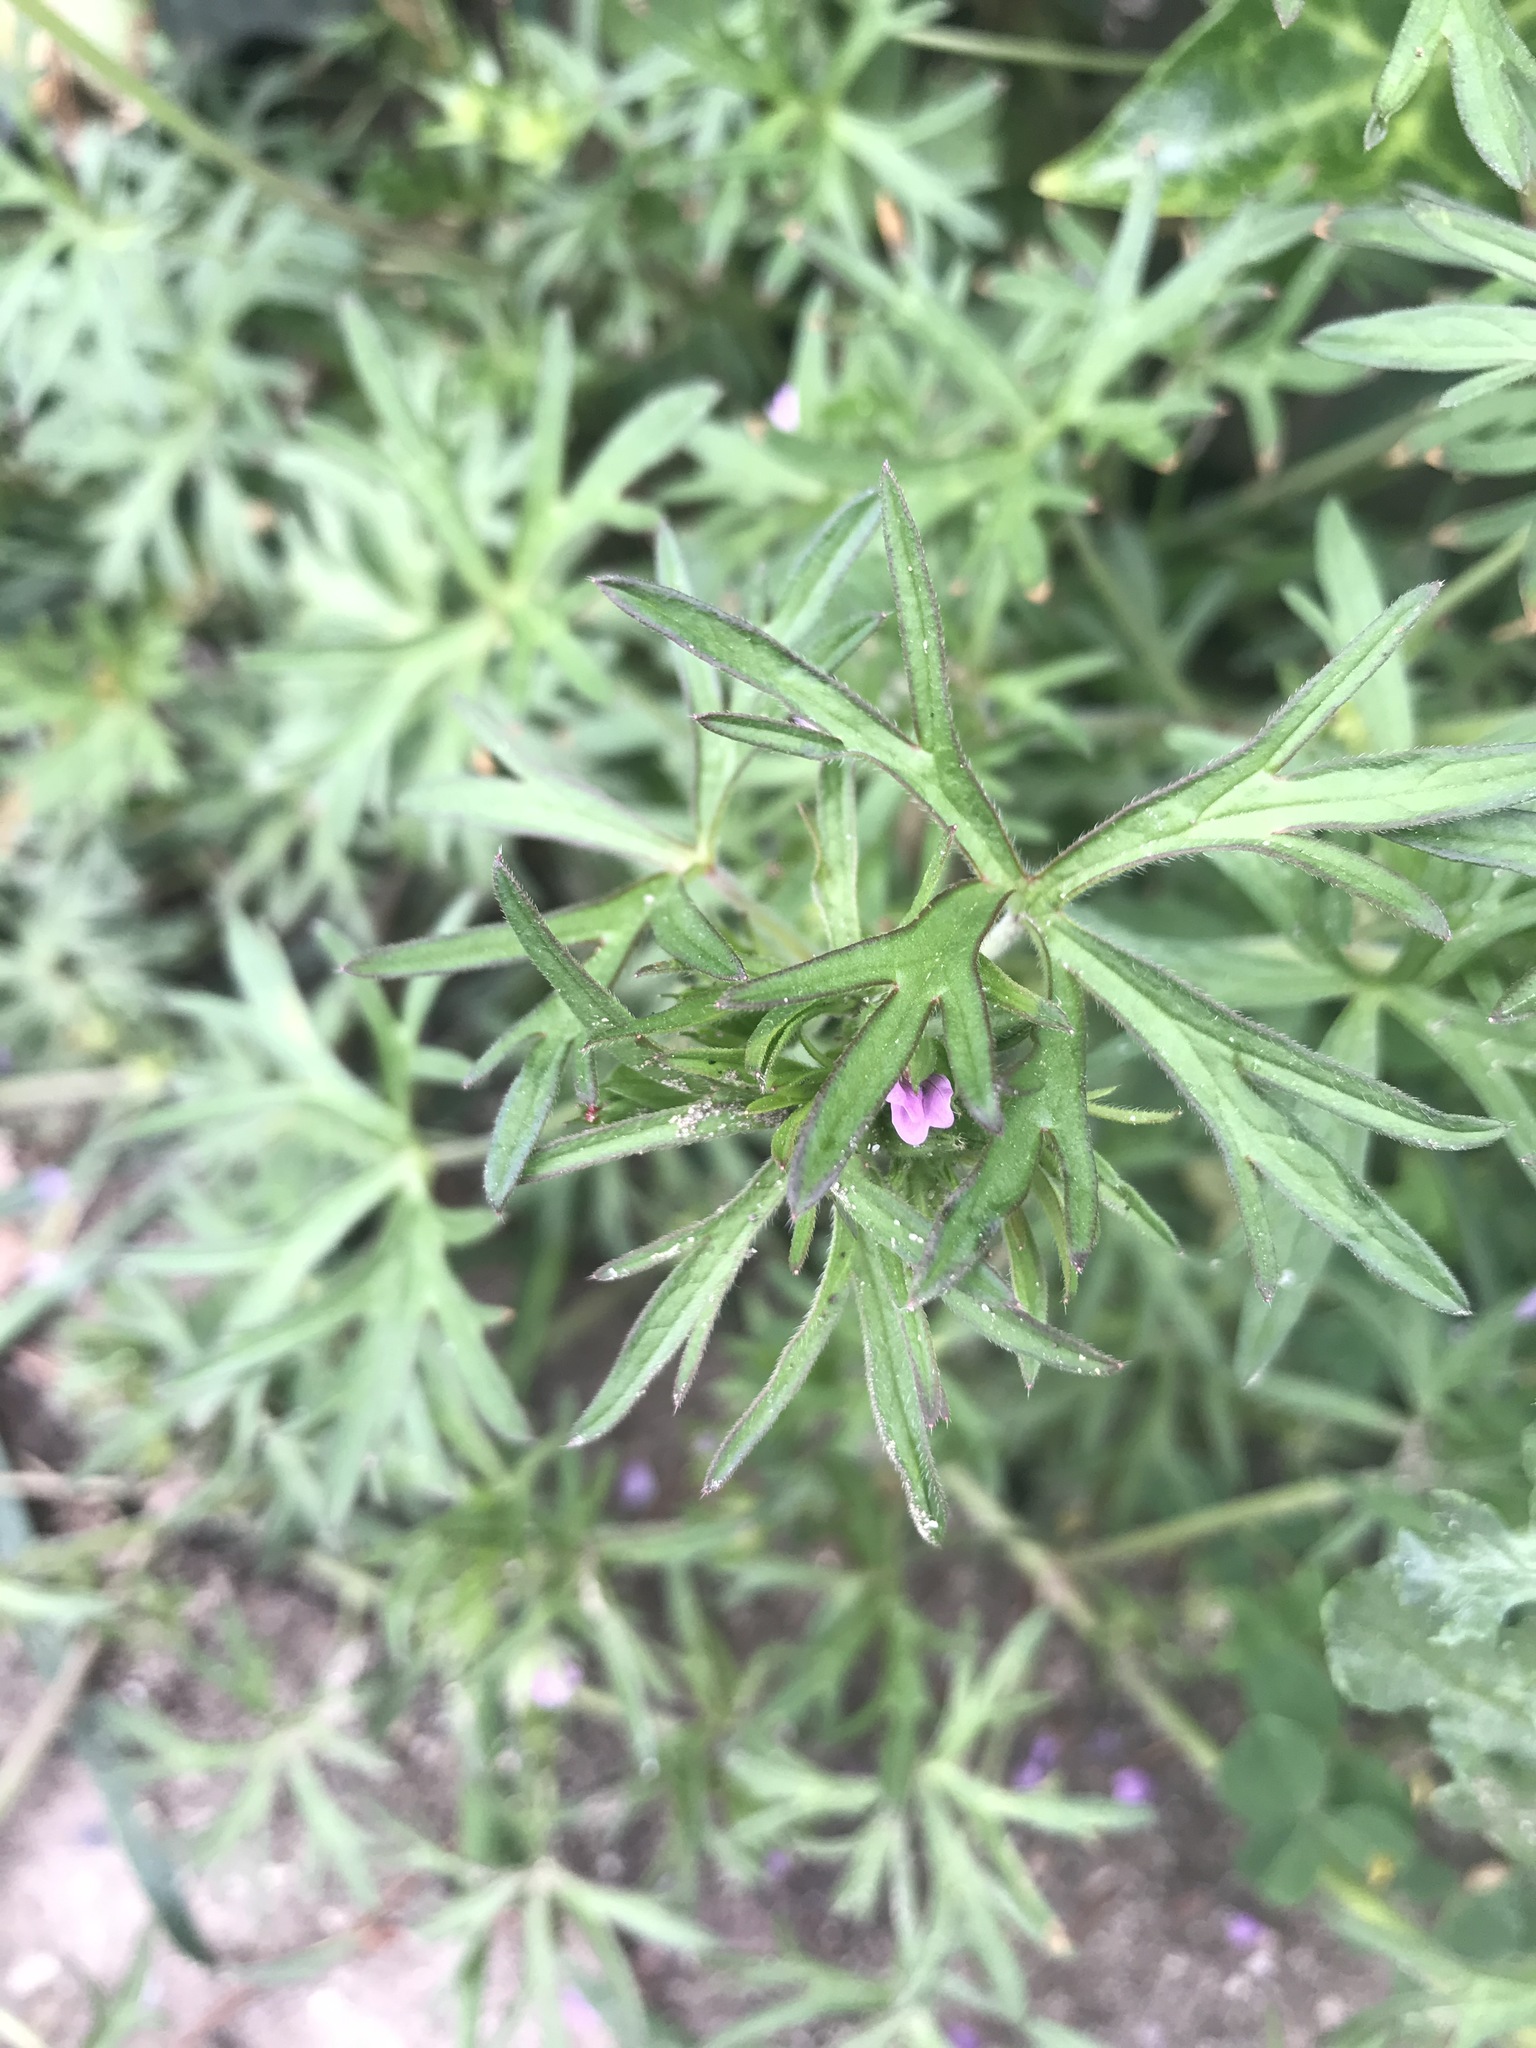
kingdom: Plantae
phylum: Tracheophyta
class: Magnoliopsida
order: Geraniales
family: Geraniaceae
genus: Geranium
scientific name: Geranium dissectum
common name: Cut-leaved crane's-bill
